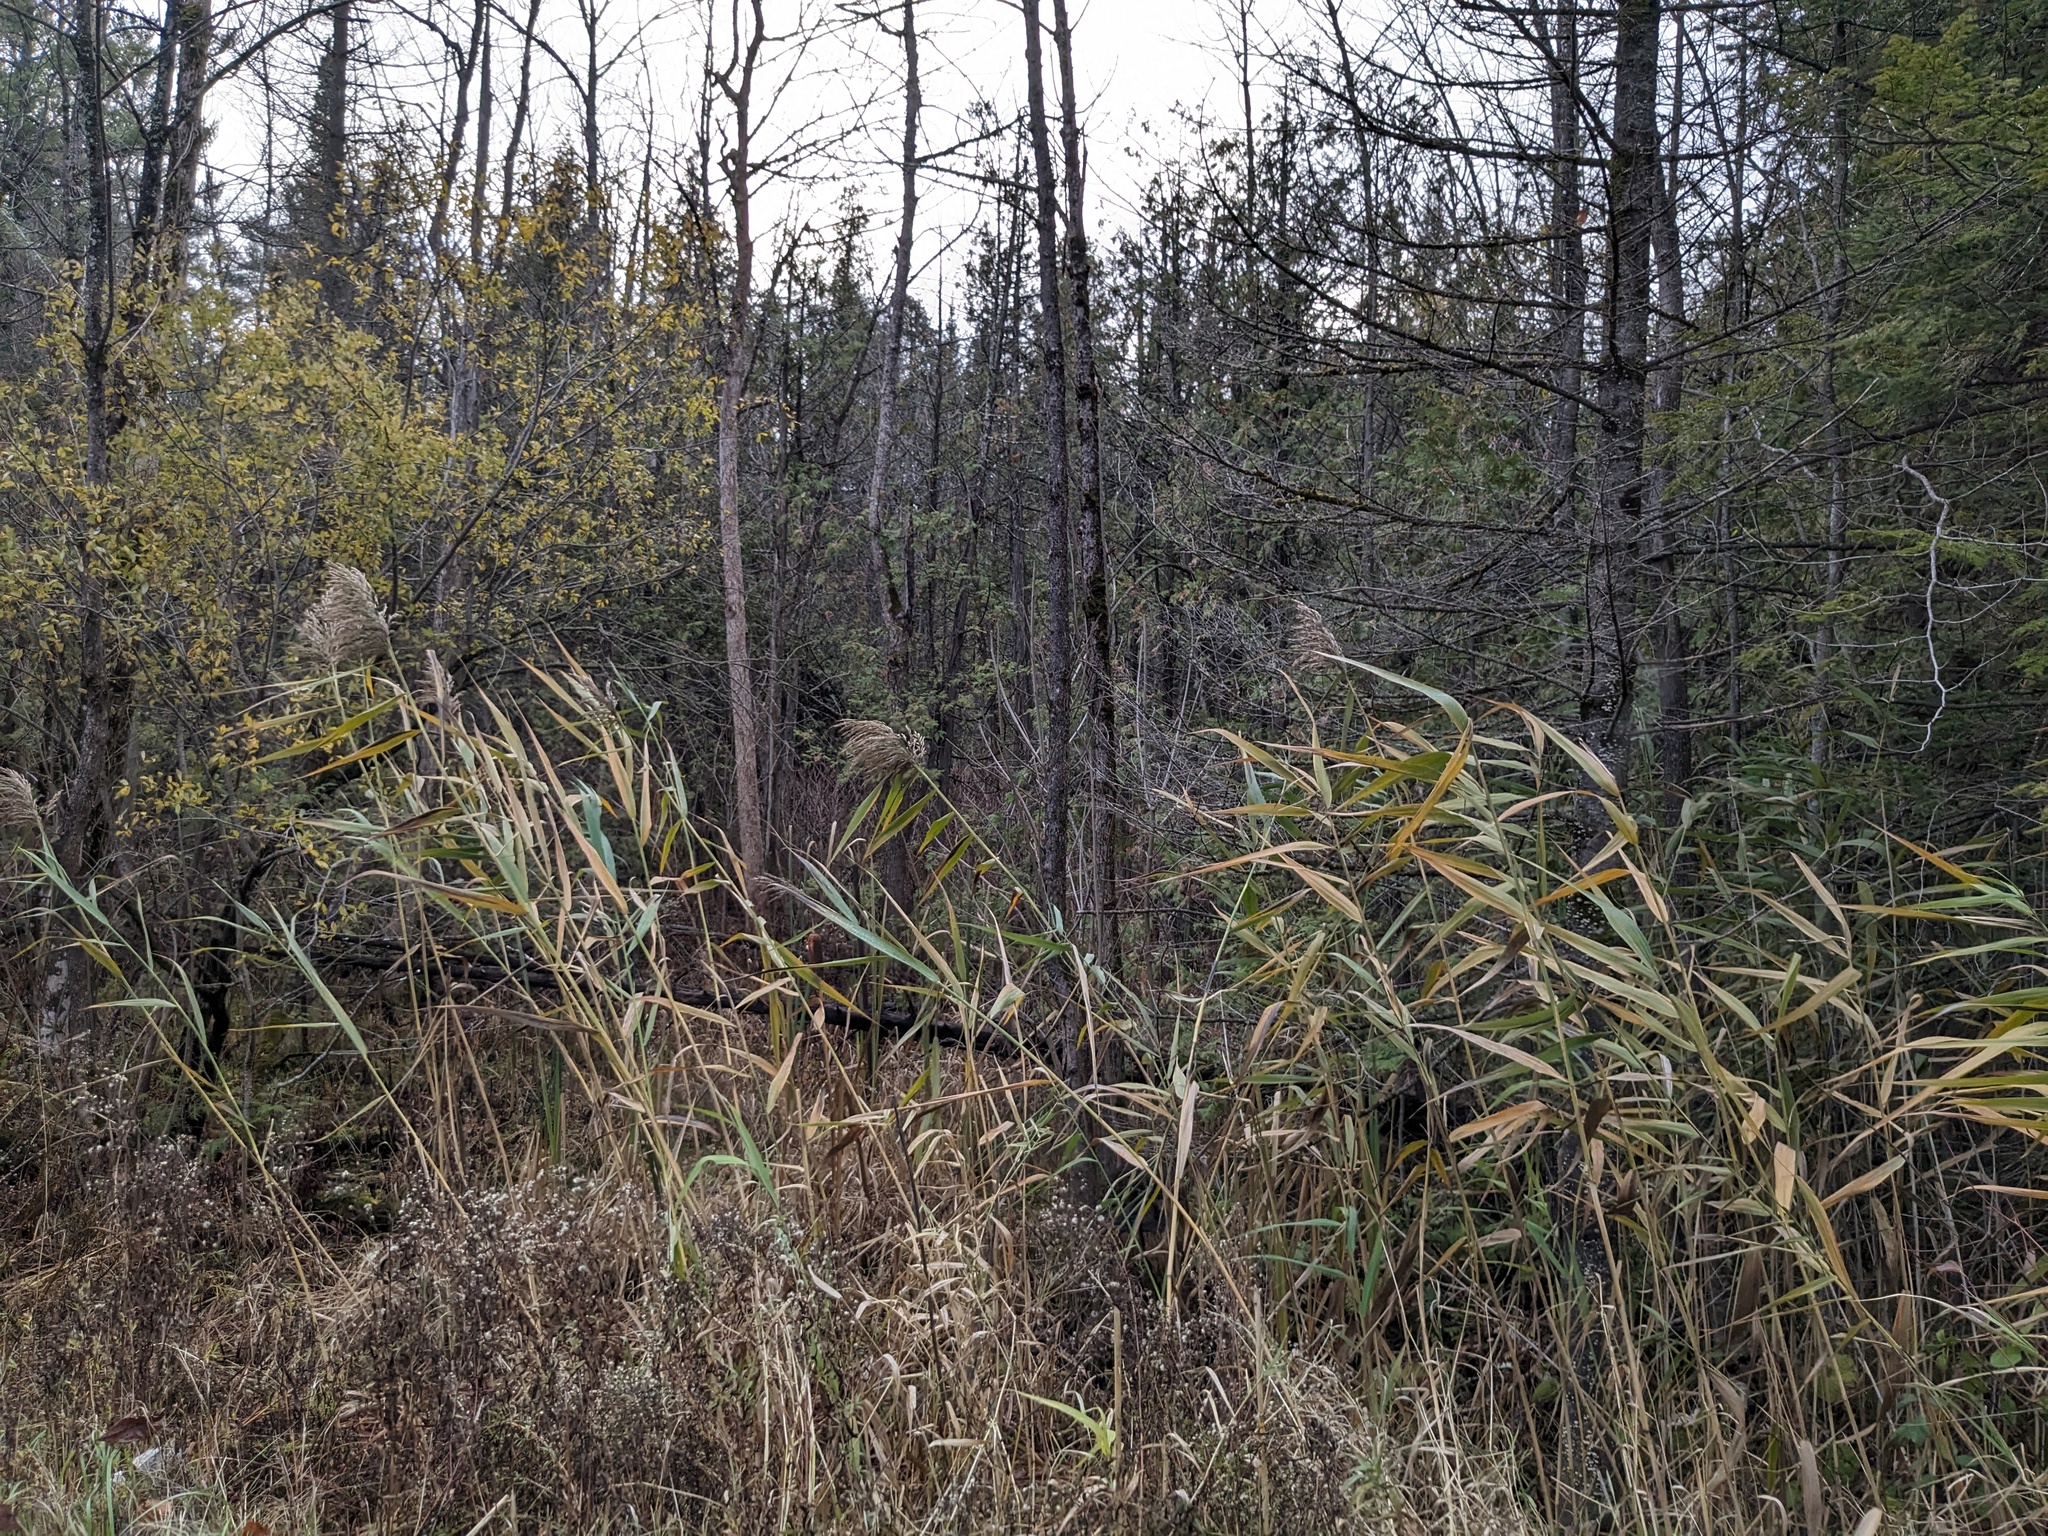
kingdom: Plantae
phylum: Tracheophyta
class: Liliopsida
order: Poales
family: Poaceae
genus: Phragmites
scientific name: Phragmites australis
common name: Common reed
